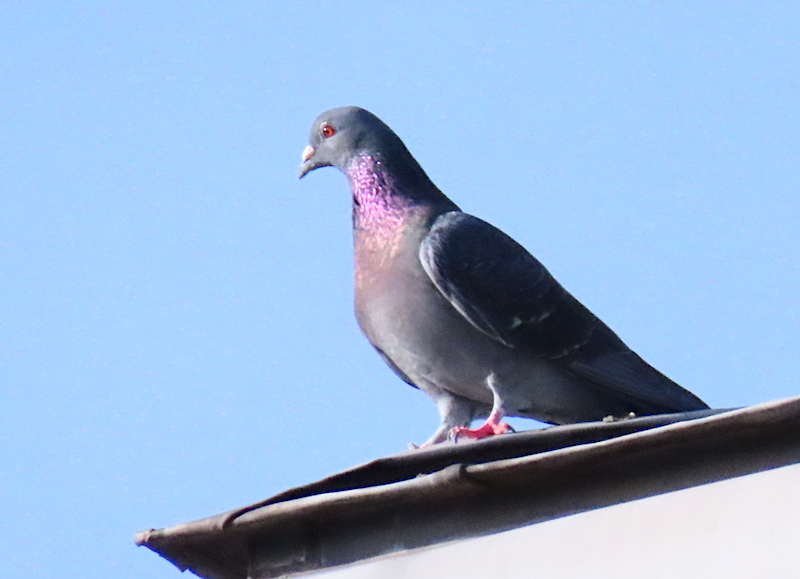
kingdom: Animalia
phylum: Chordata
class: Aves
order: Columbiformes
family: Columbidae
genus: Columba
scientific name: Columba livia
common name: Rock pigeon
